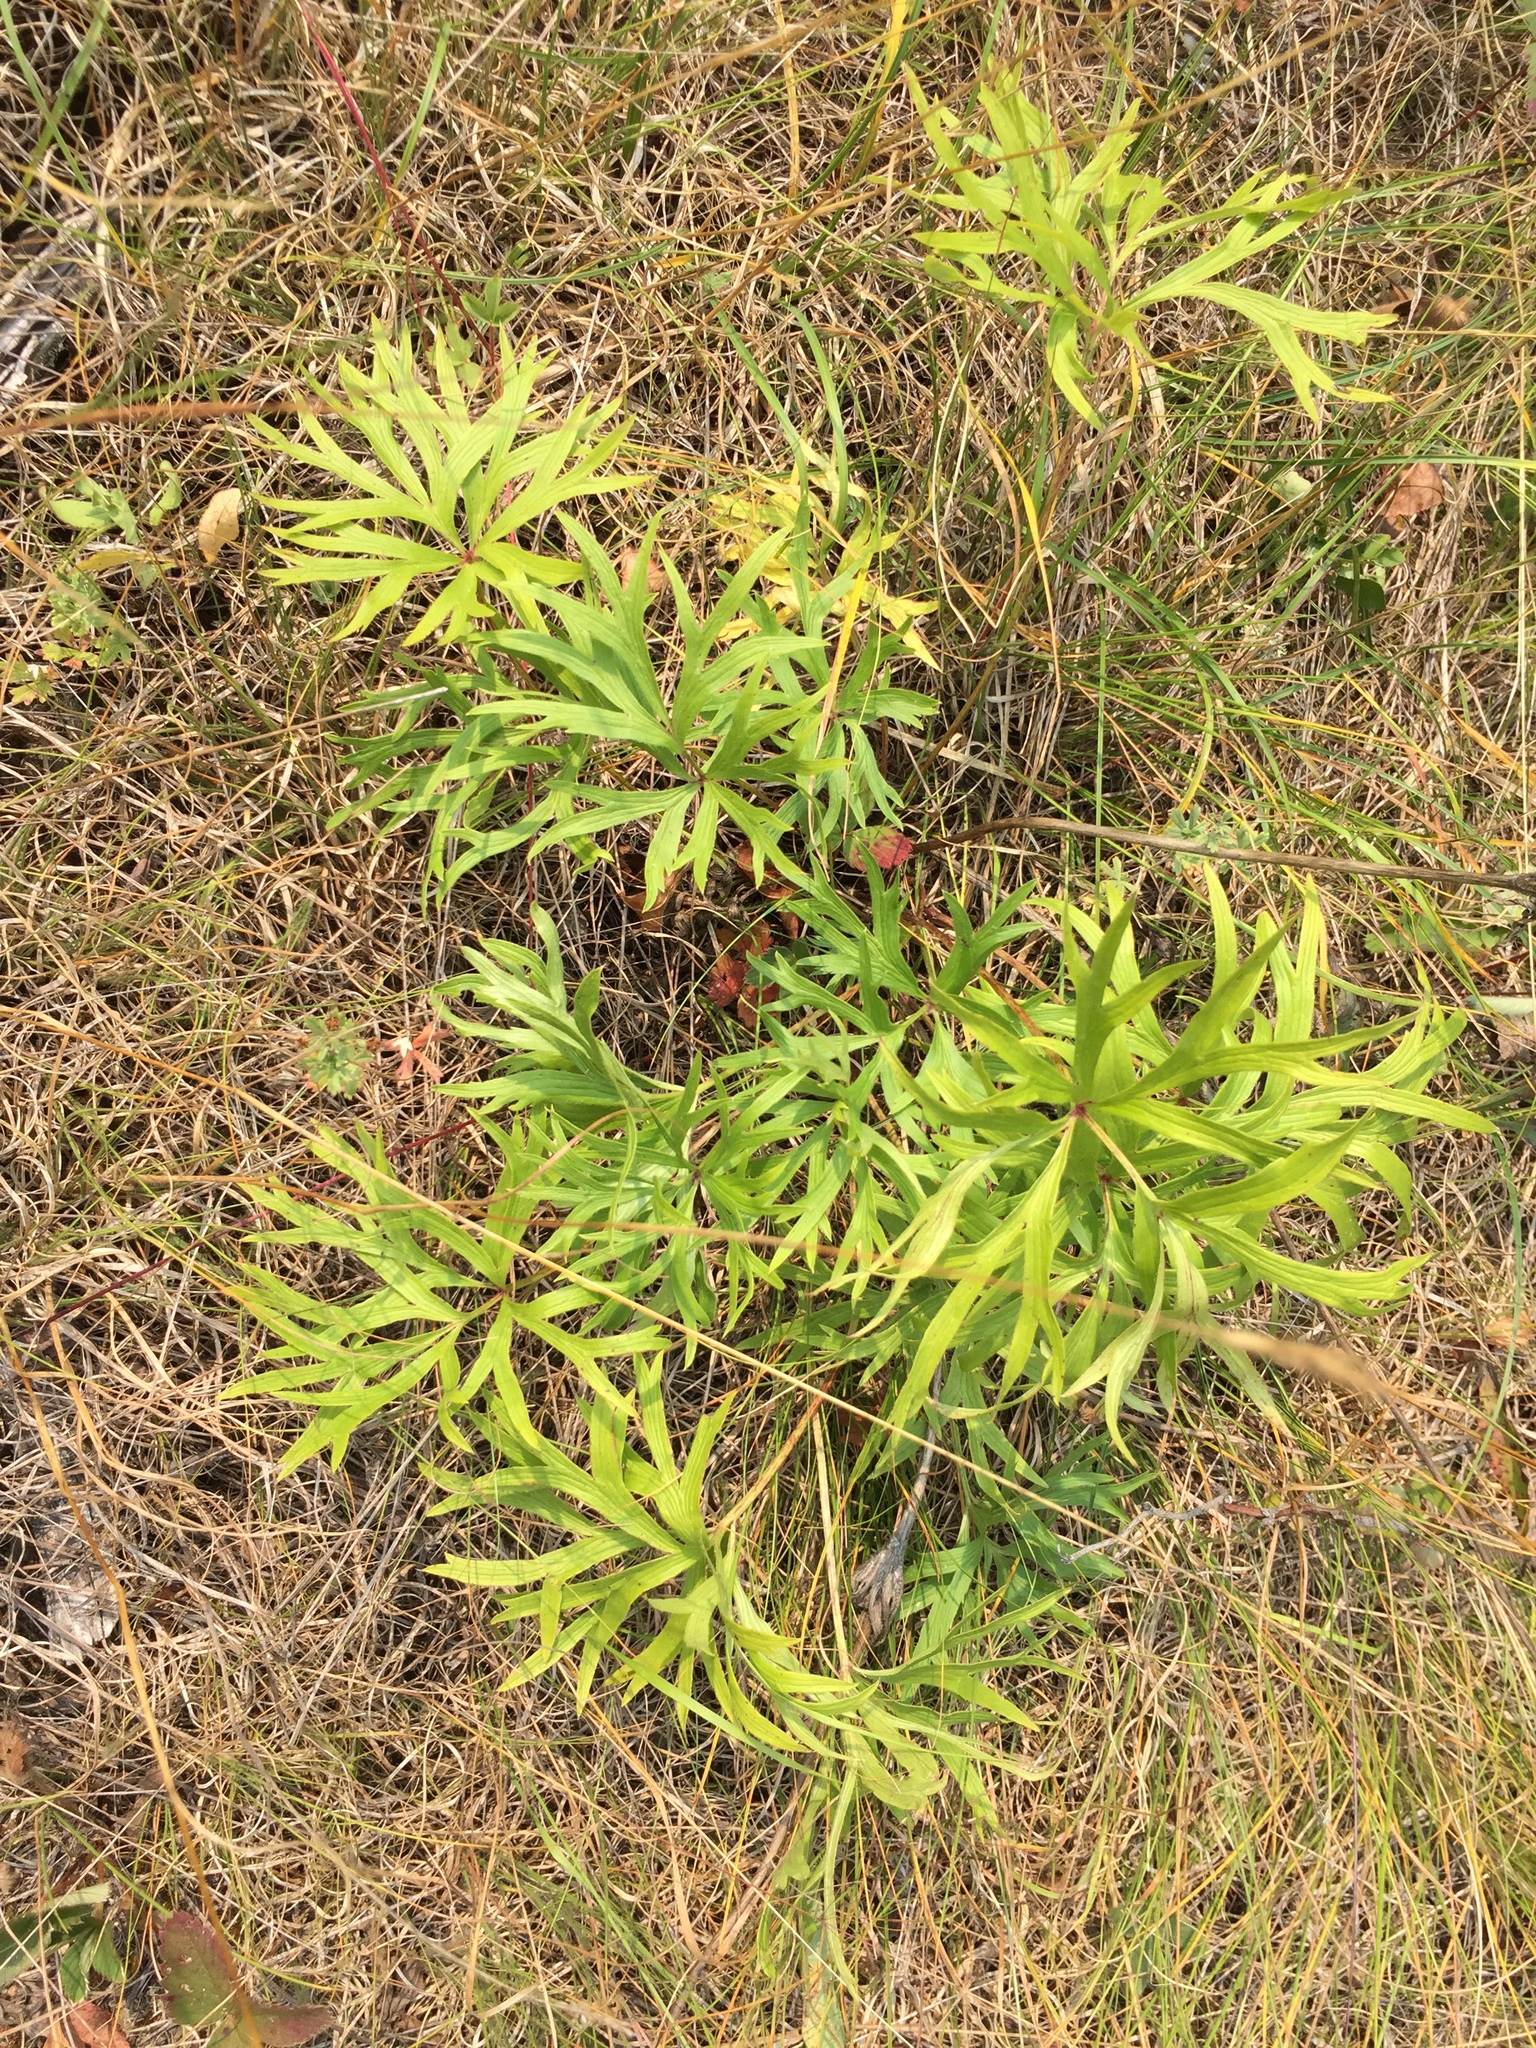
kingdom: Plantae
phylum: Tracheophyta
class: Magnoliopsida
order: Ranunculales
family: Ranunculaceae
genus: Pulsatilla
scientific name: Pulsatilla nuttalliana
